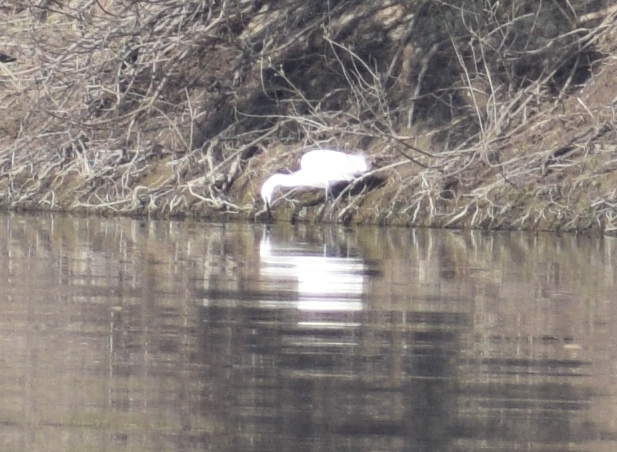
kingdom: Animalia
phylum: Chordata
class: Aves
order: Pelecaniformes
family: Ardeidae
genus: Egretta
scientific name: Egretta garzetta
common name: Little egret
